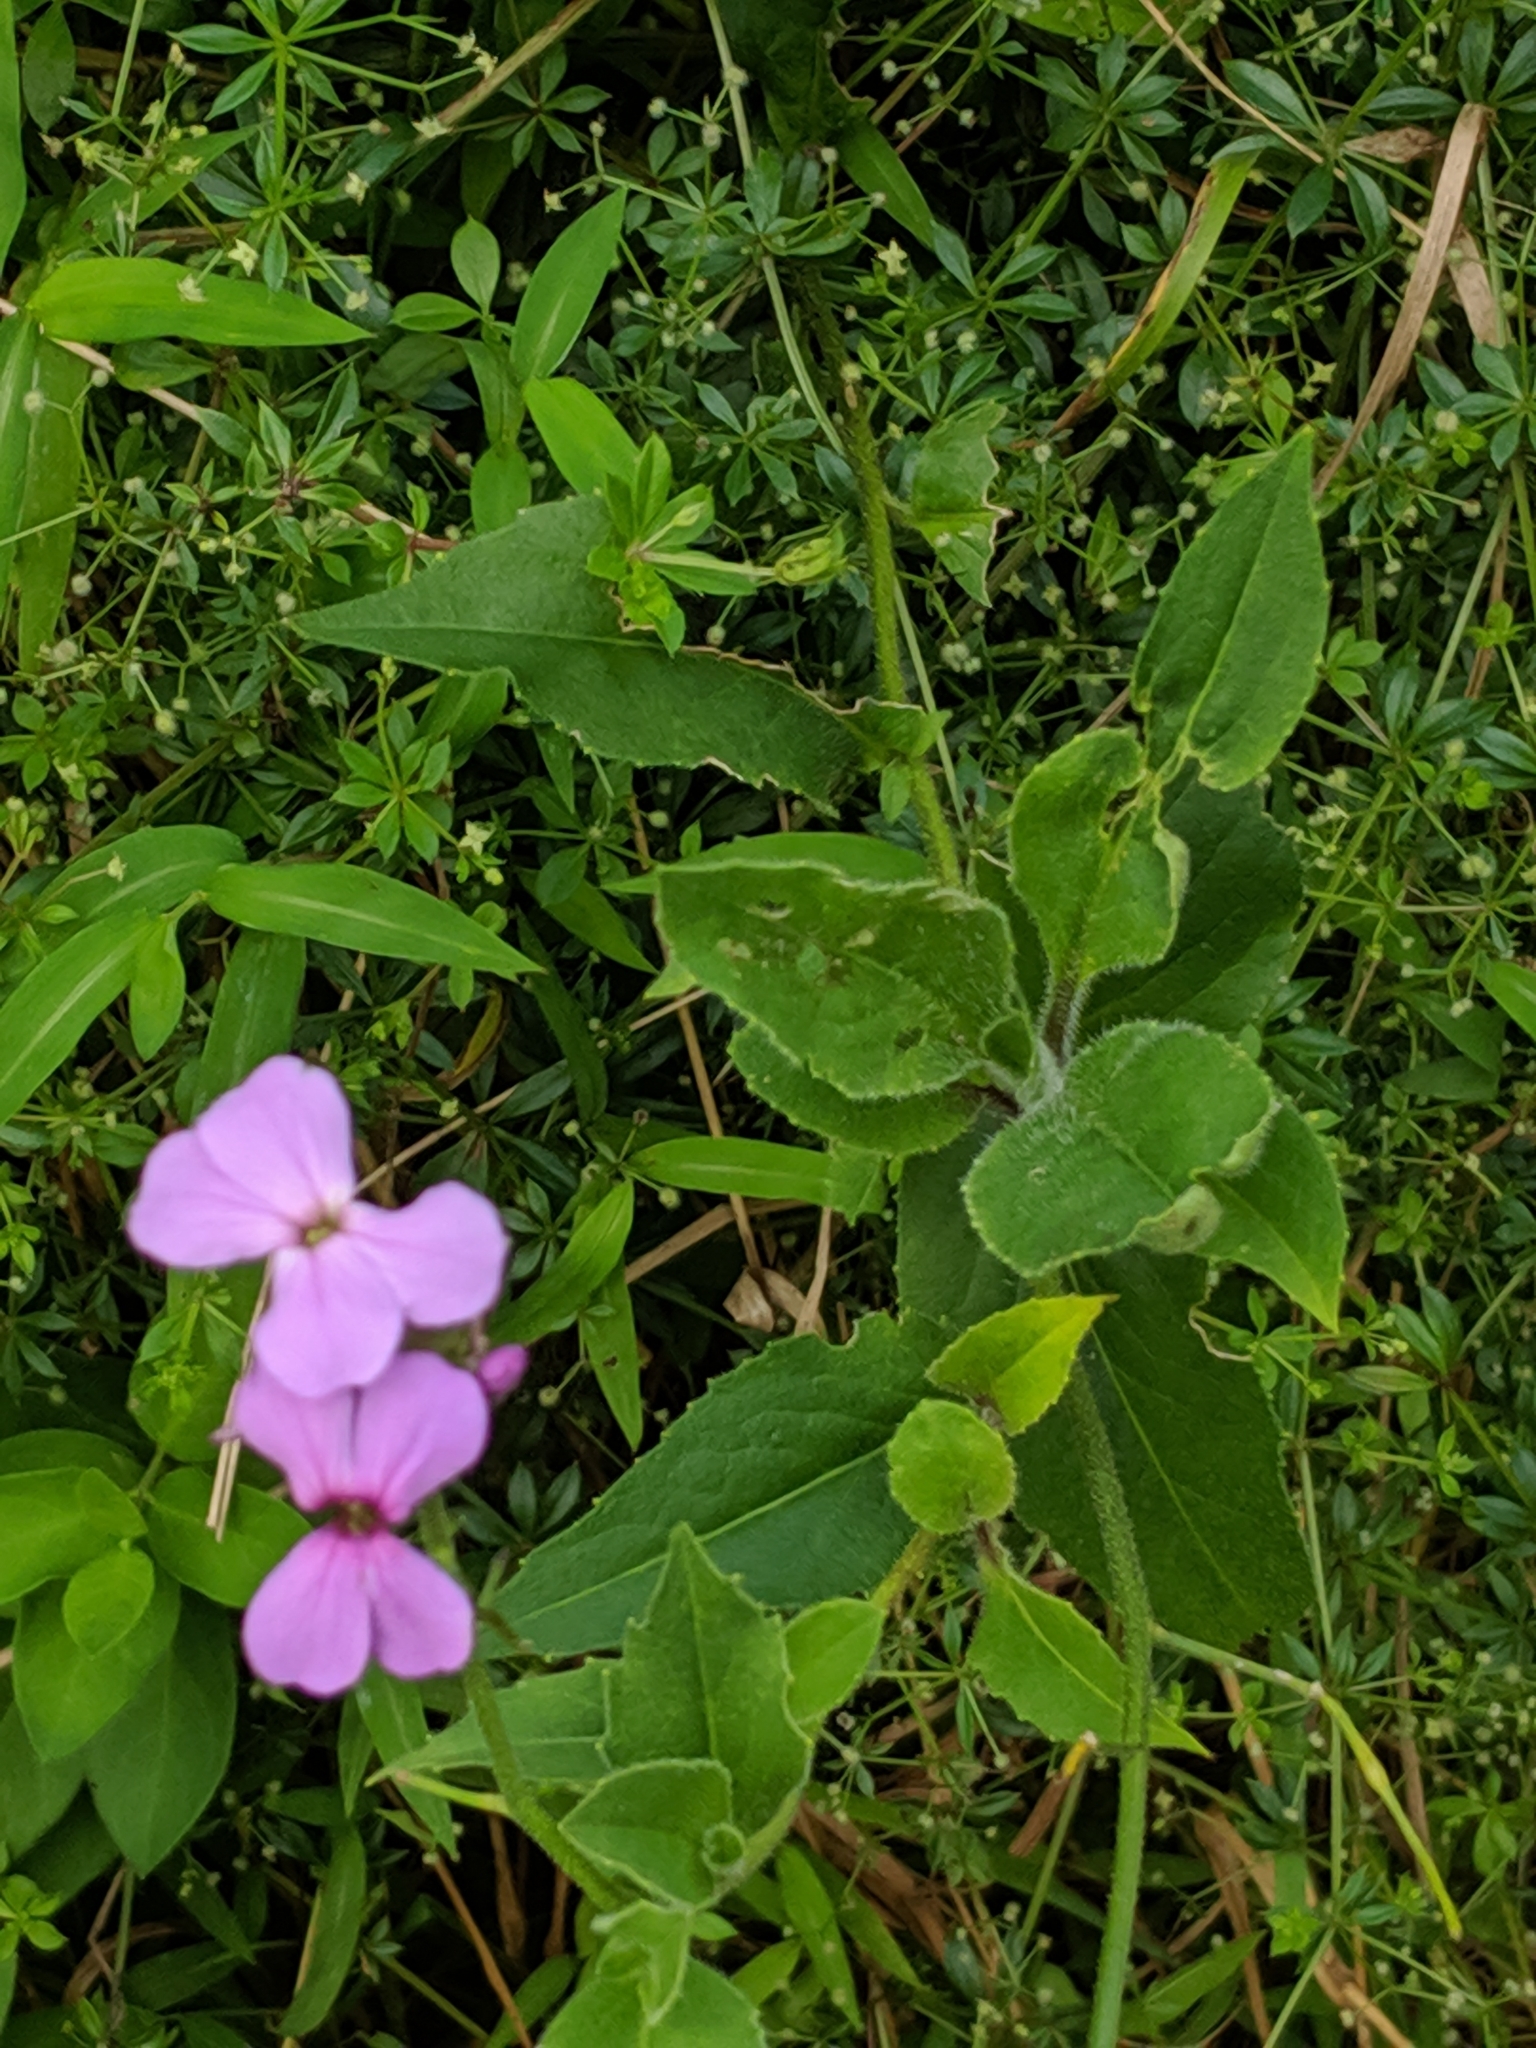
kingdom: Plantae
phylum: Tracheophyta
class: Magnoliopsida
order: Brassicales
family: Brassicaceae
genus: Hesperis
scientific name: Hesperis matronalis
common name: Dame's-violet
